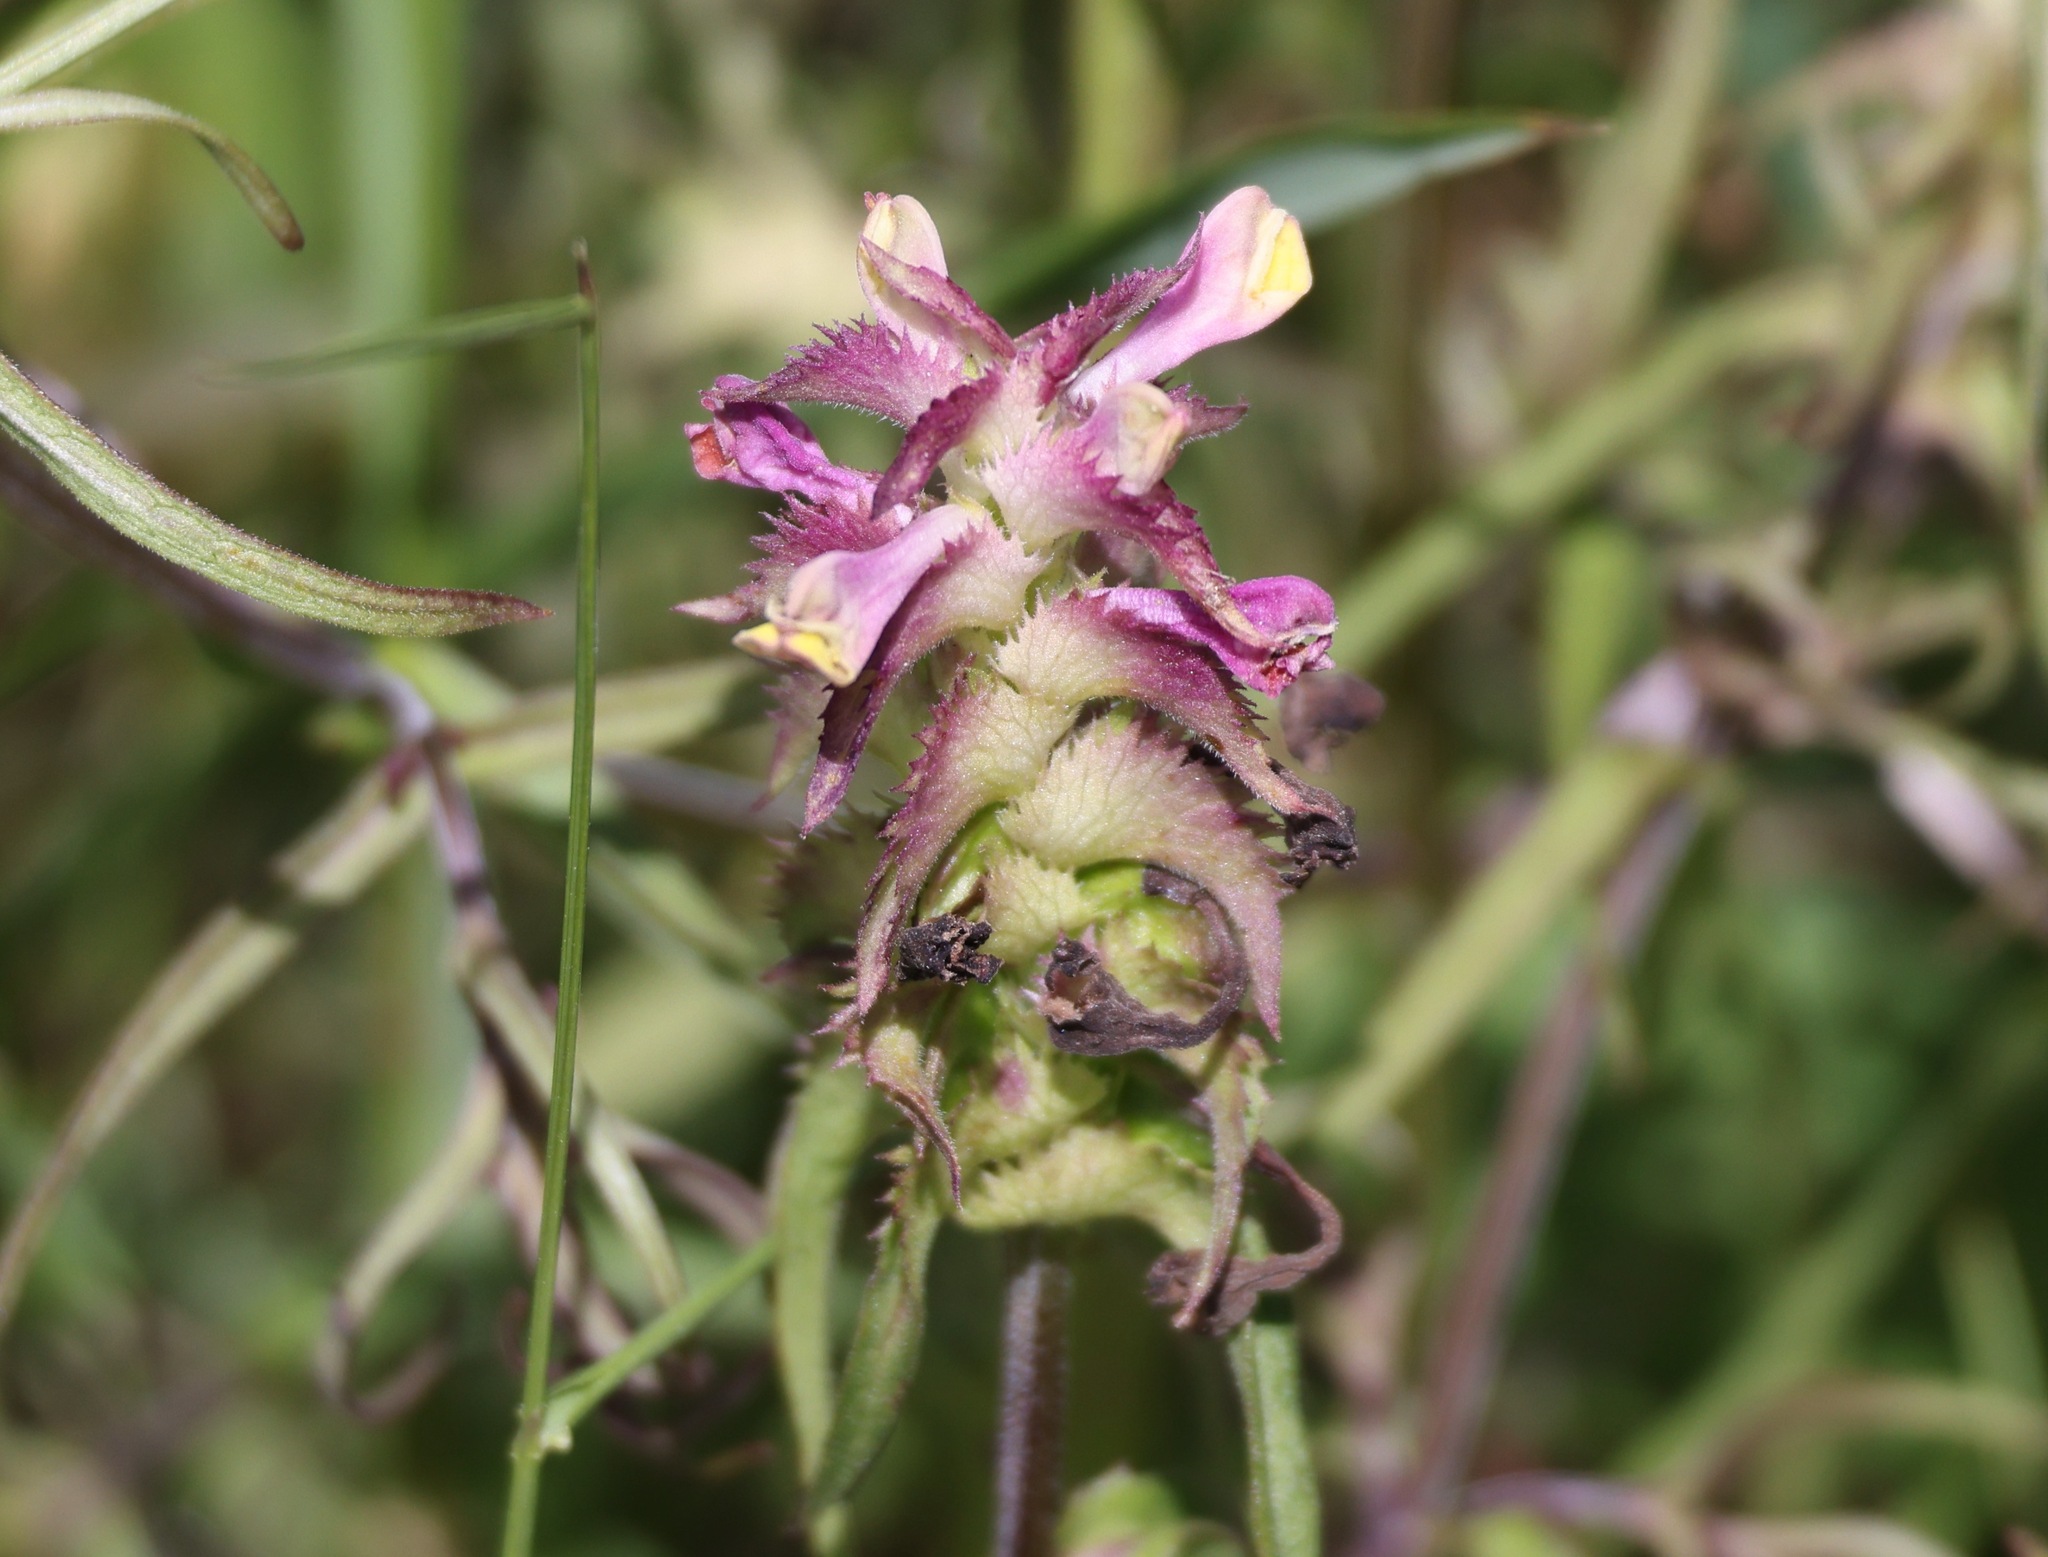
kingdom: Plantae
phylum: Tracheophyta
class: Magnoliopsida
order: Lamiales
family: Orobanchaceae
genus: Melampyrum
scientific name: Melampyrum cristatum
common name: Crested cow-wheat
